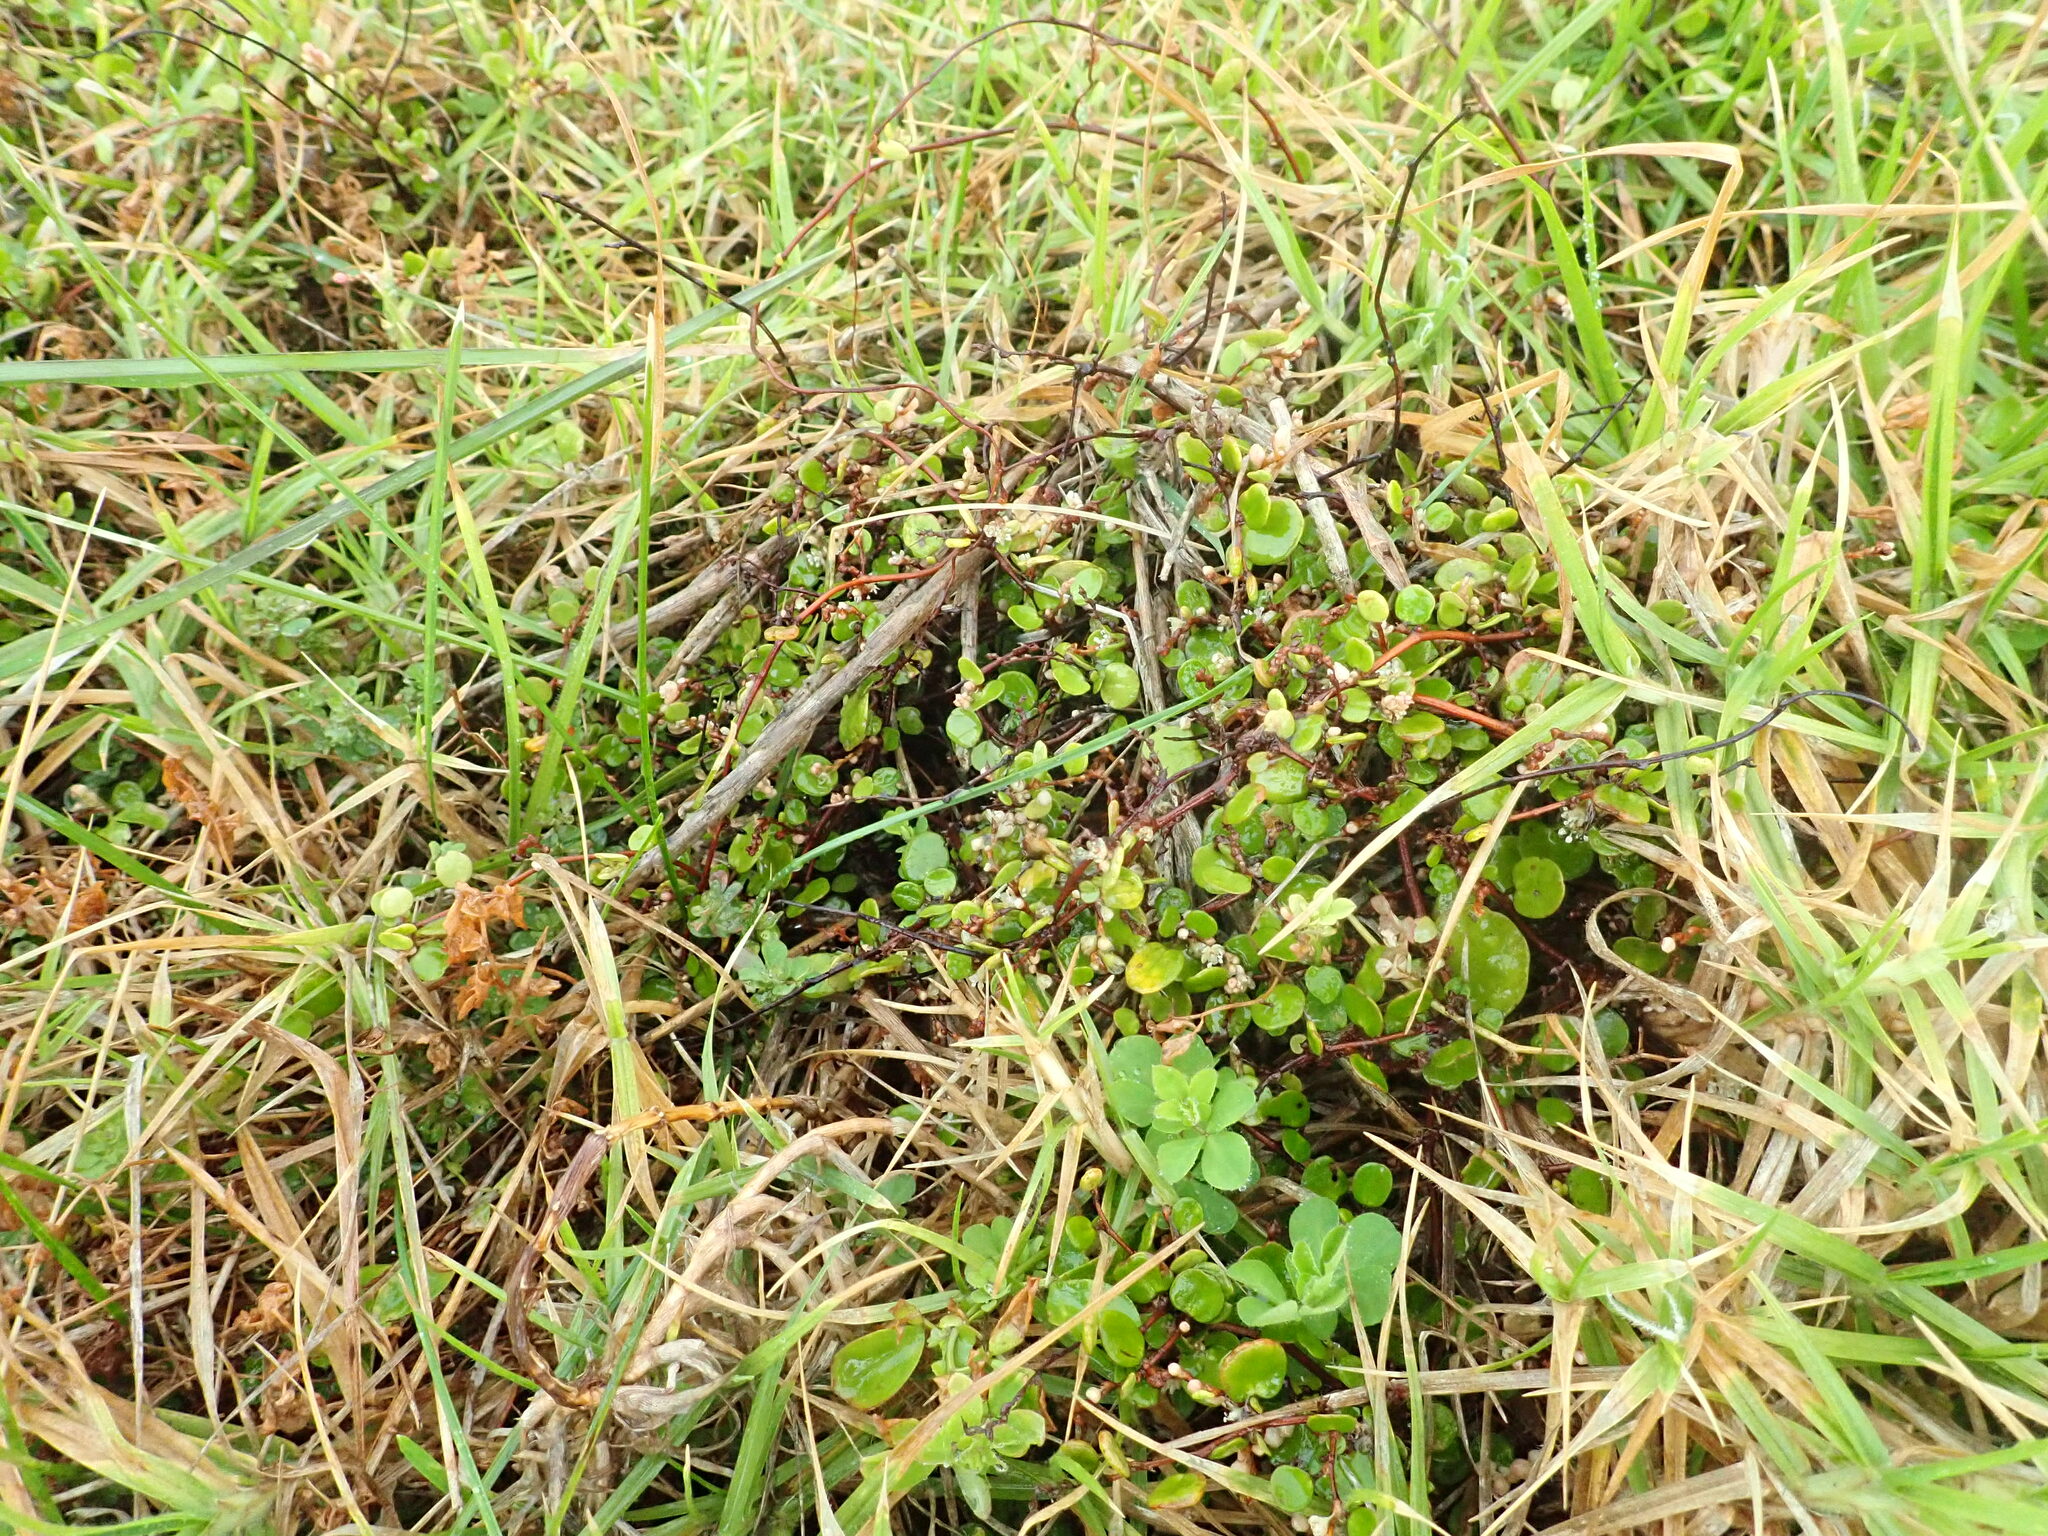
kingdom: Plantae
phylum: Tracheophyta
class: Magnoliopsida
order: Caryophyllales
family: Polygonaceae
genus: Muehlenbeckia
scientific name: Muehlenbeckia complexa
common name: Wireplant
